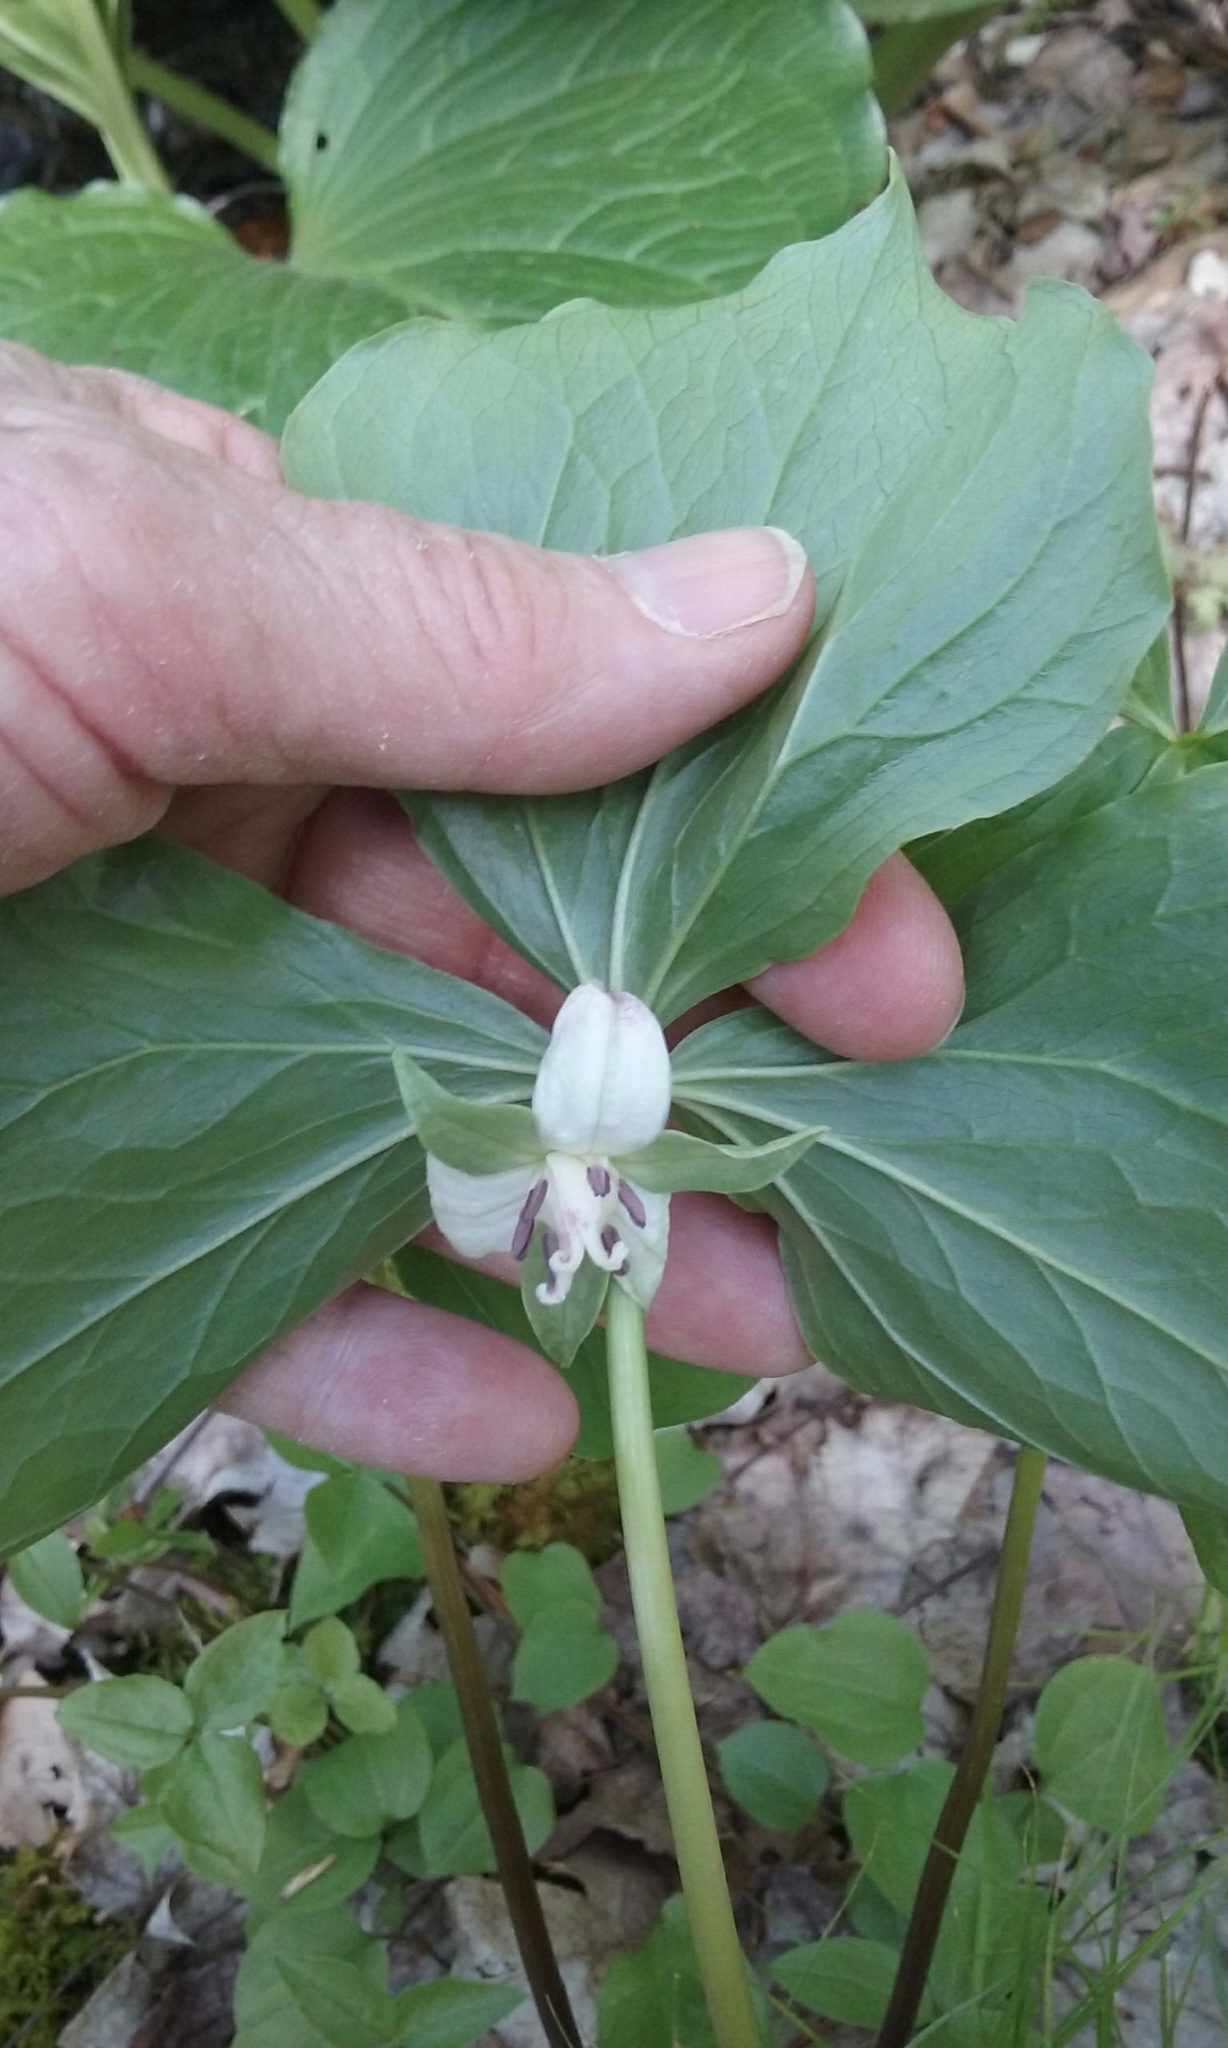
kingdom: Plantae
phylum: Tracheophyta
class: Liliopsida
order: Liliales
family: Melanthiaceae
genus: Trillium
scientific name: Trillium cernuum
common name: Nodding trillium
